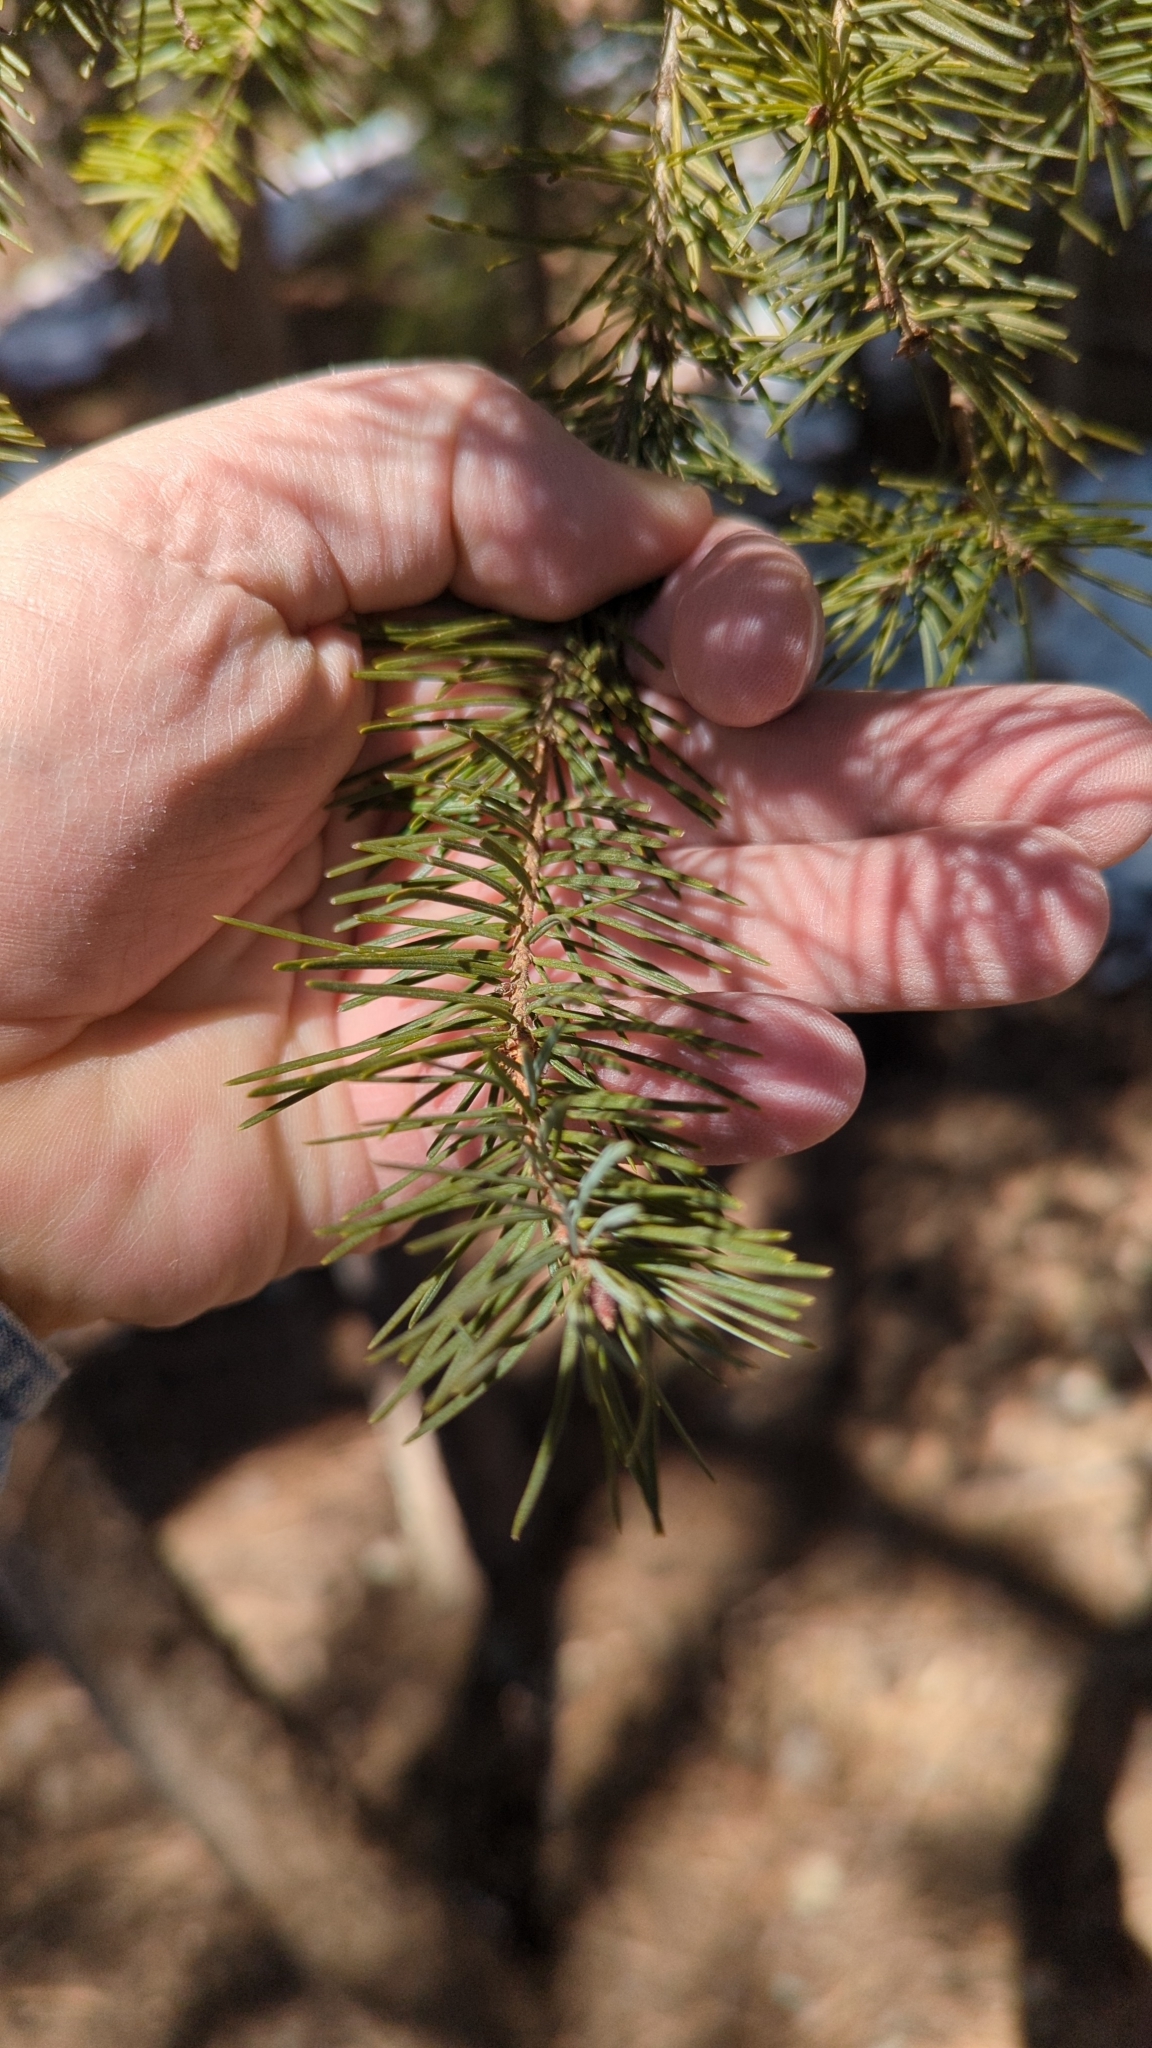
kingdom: Plantae
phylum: Tracheophyta
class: Pinopsida
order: Pinales
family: Pinaceae
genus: Pseudotsuga
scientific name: Pseudotsuga menziesii
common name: Douglas fir
